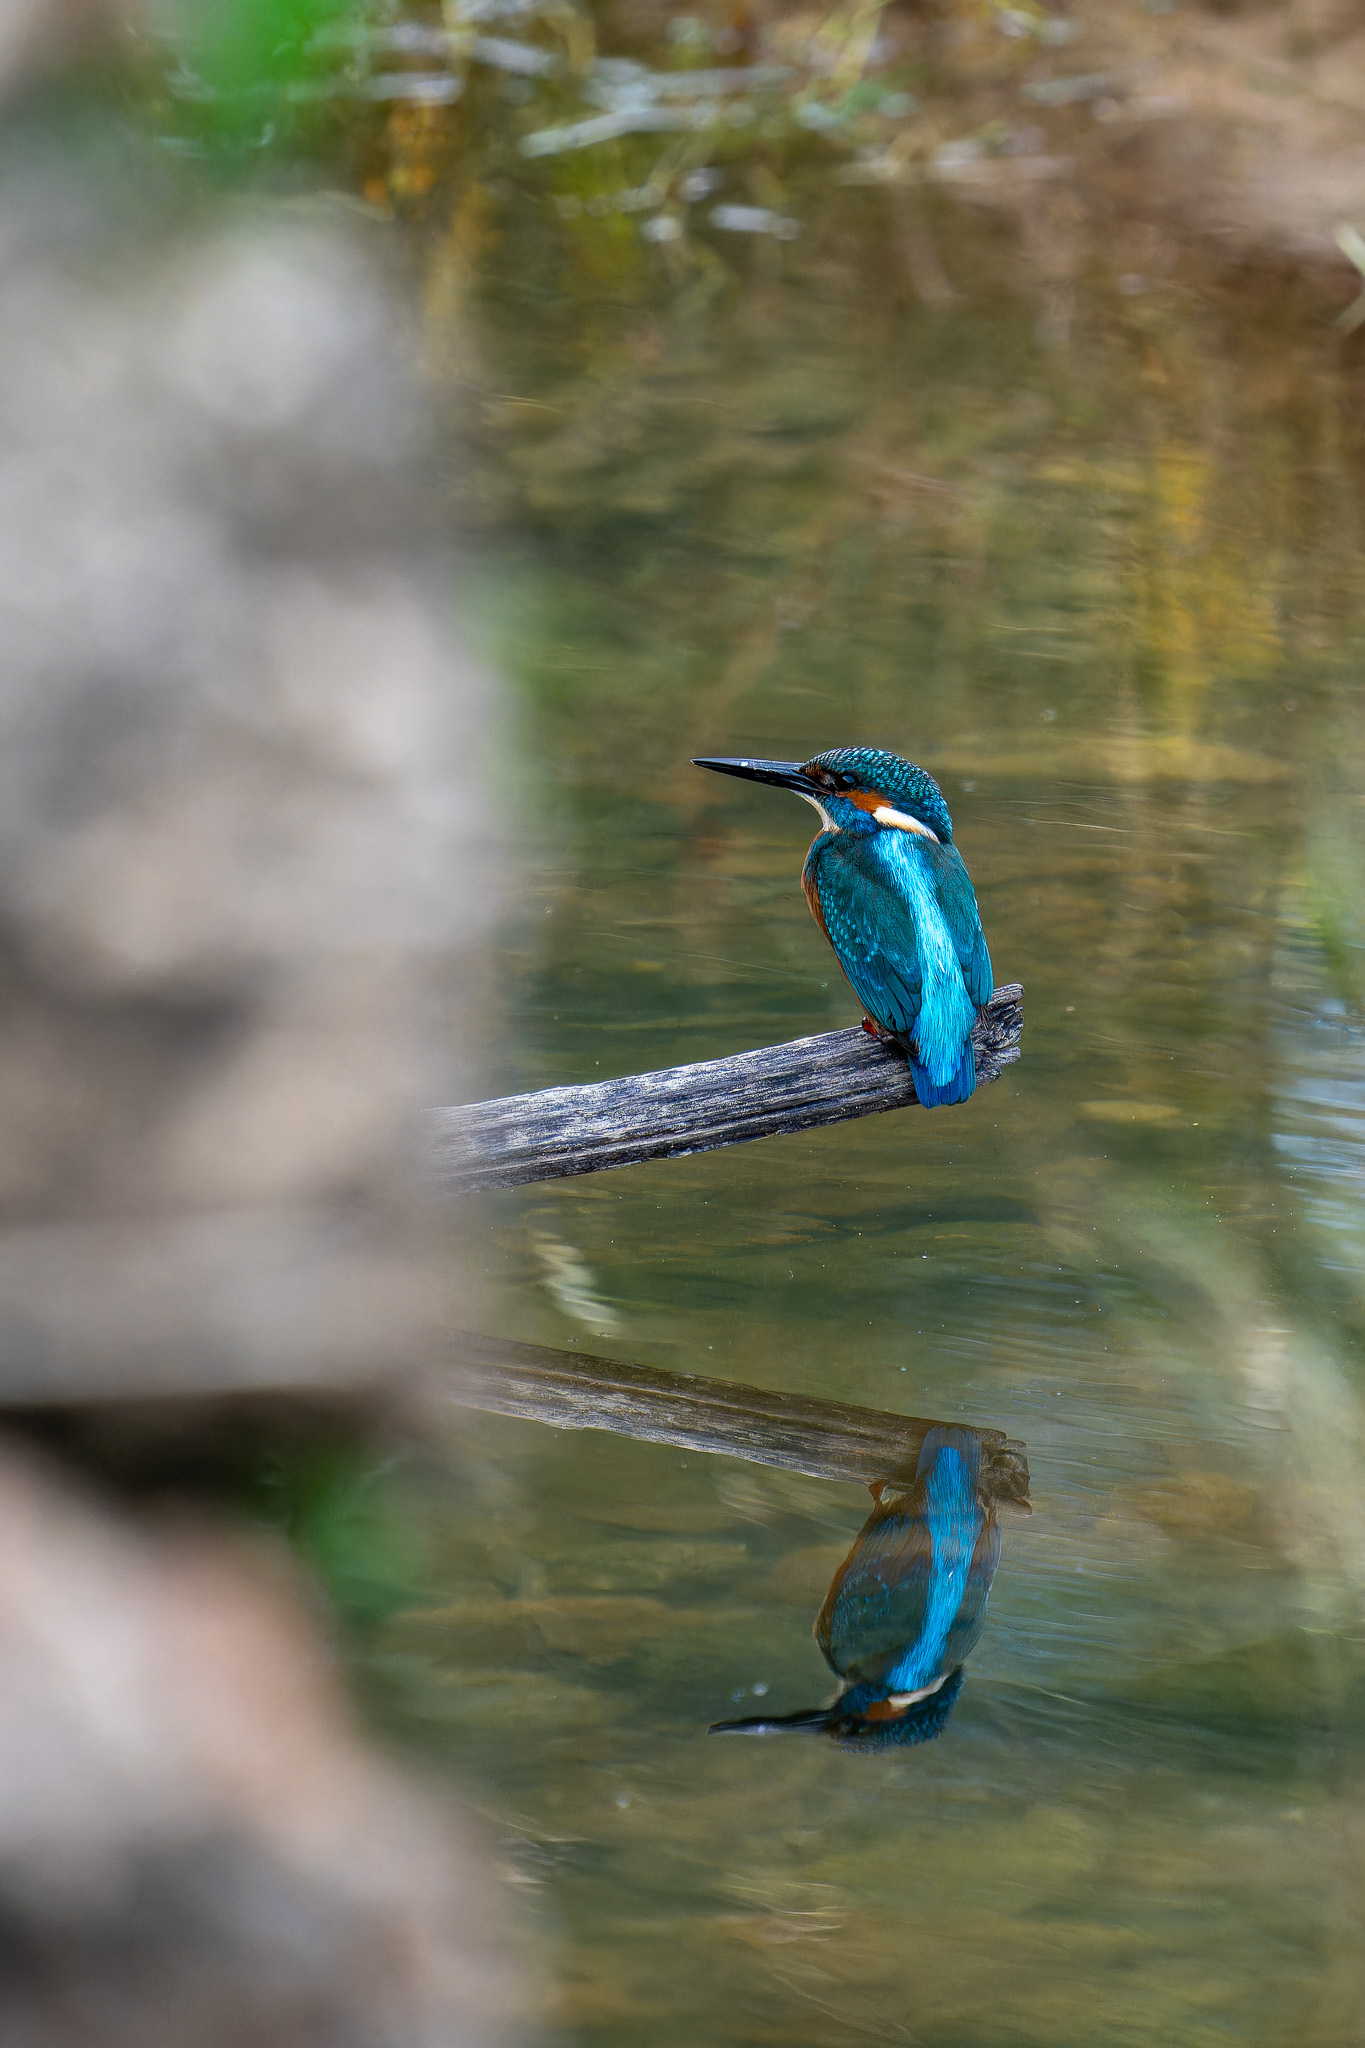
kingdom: Animalia
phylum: Chordata
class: Aves
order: Coraciiformes
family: Alcedinidae
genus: Alcedo
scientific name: Alcedo atthis
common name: Common kingfisher
